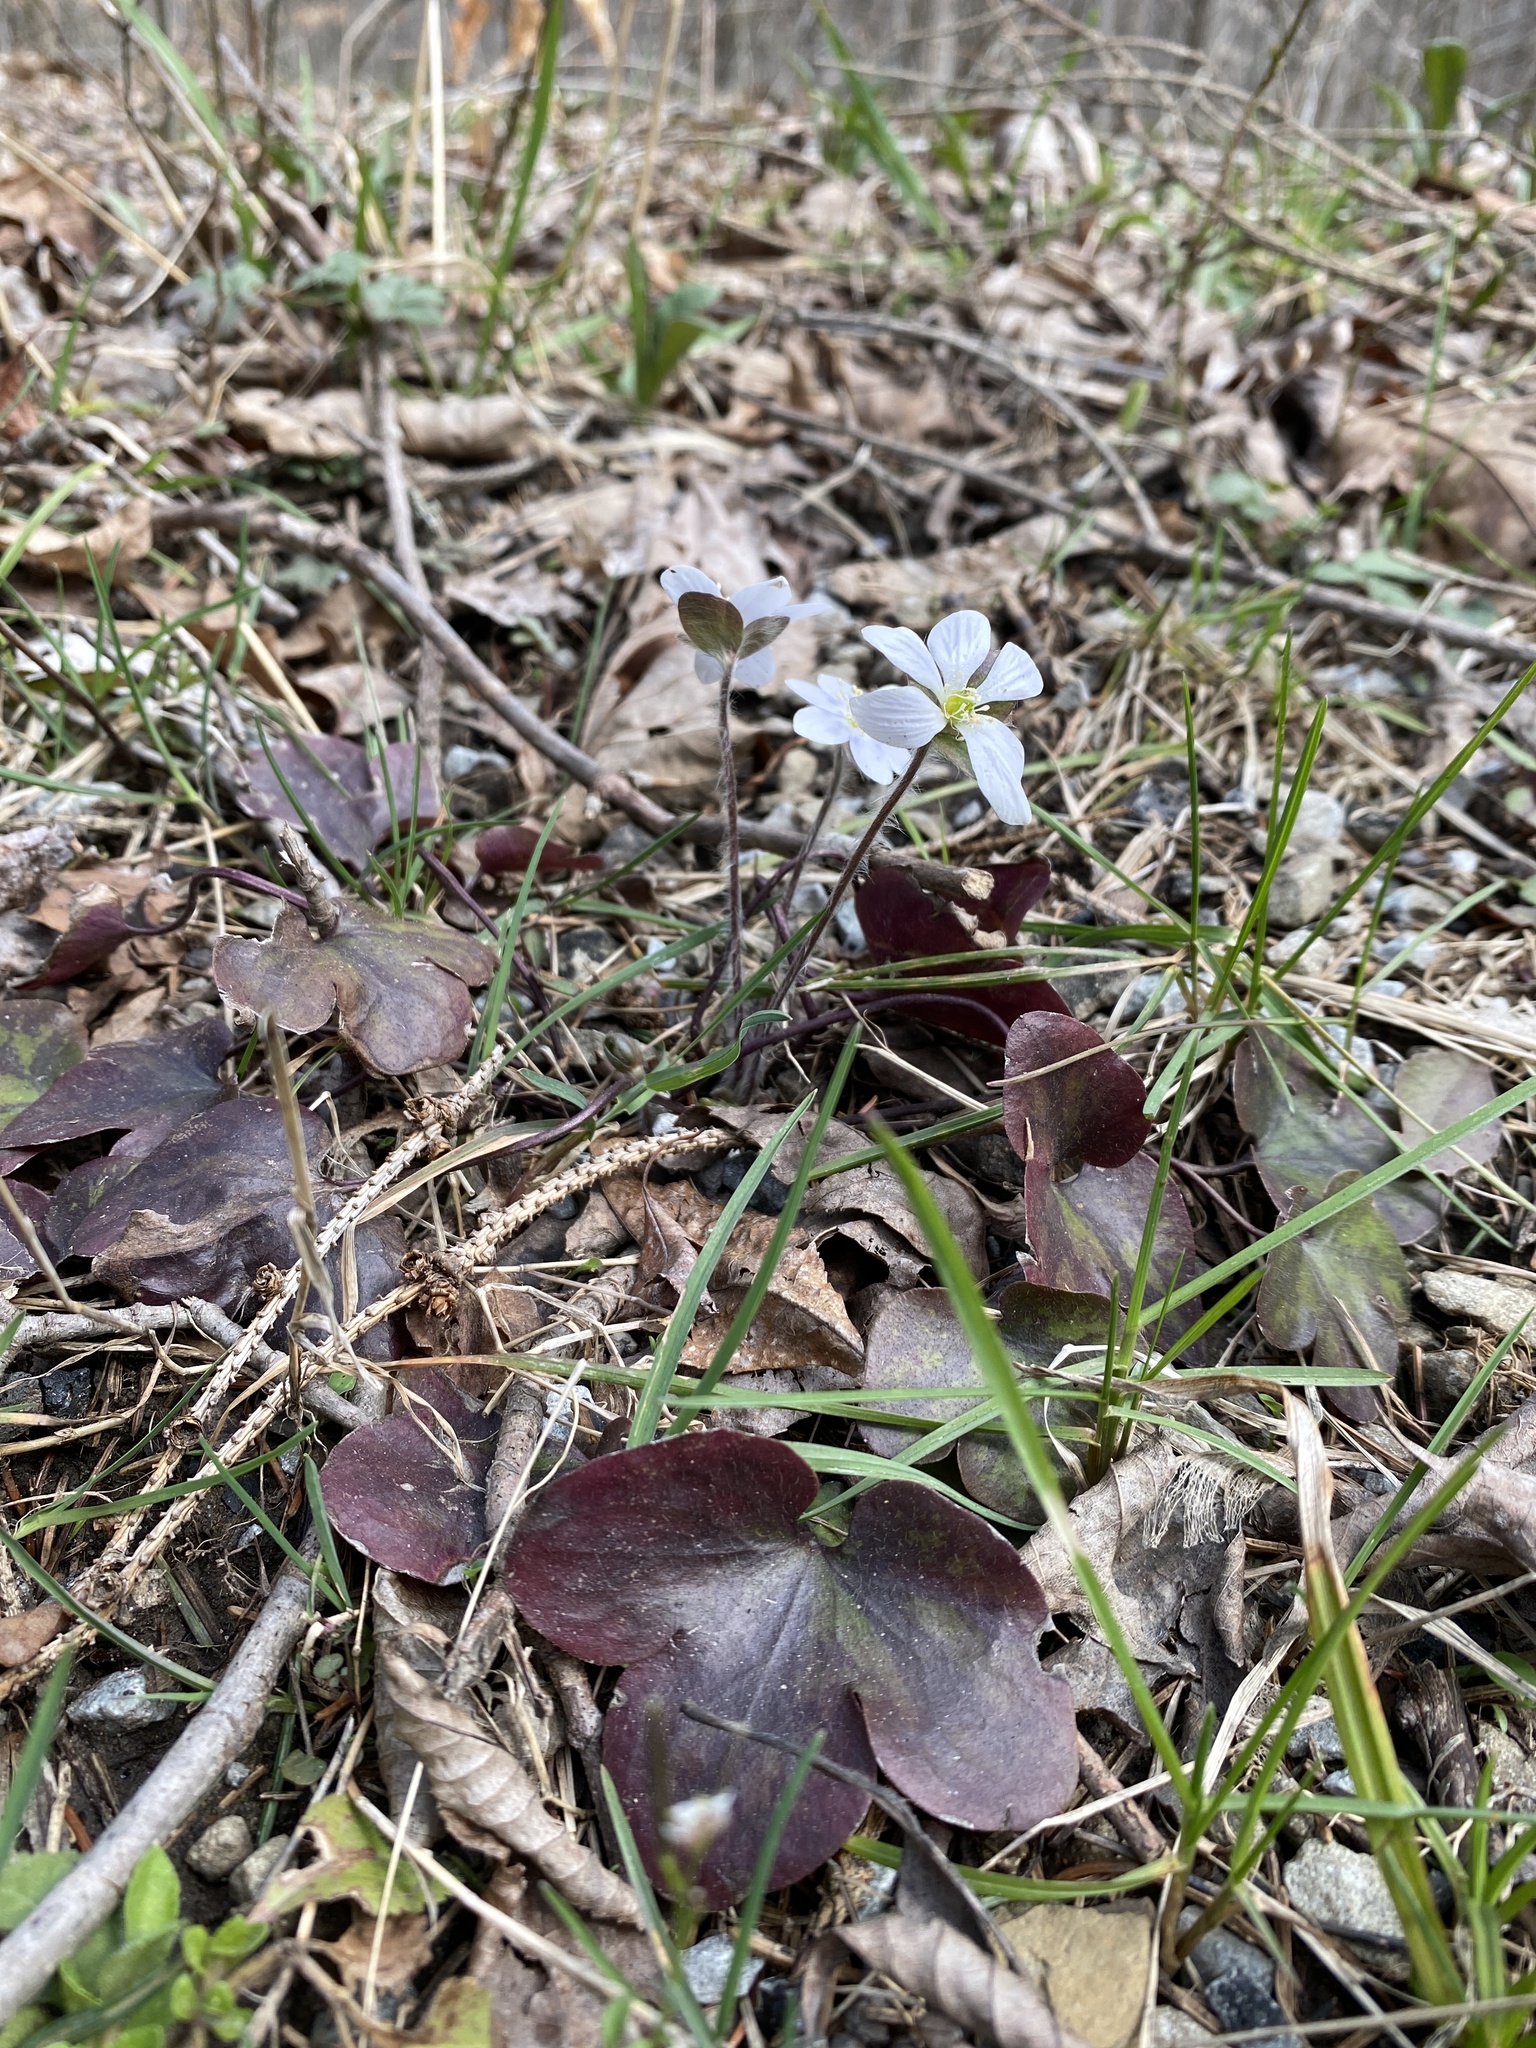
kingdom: Plantae
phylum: Tracheophyta
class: Magnoliopsida
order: Ranunculales
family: Ranunculaceae
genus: Hepatica
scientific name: Hepatica americana
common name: American hepatica
